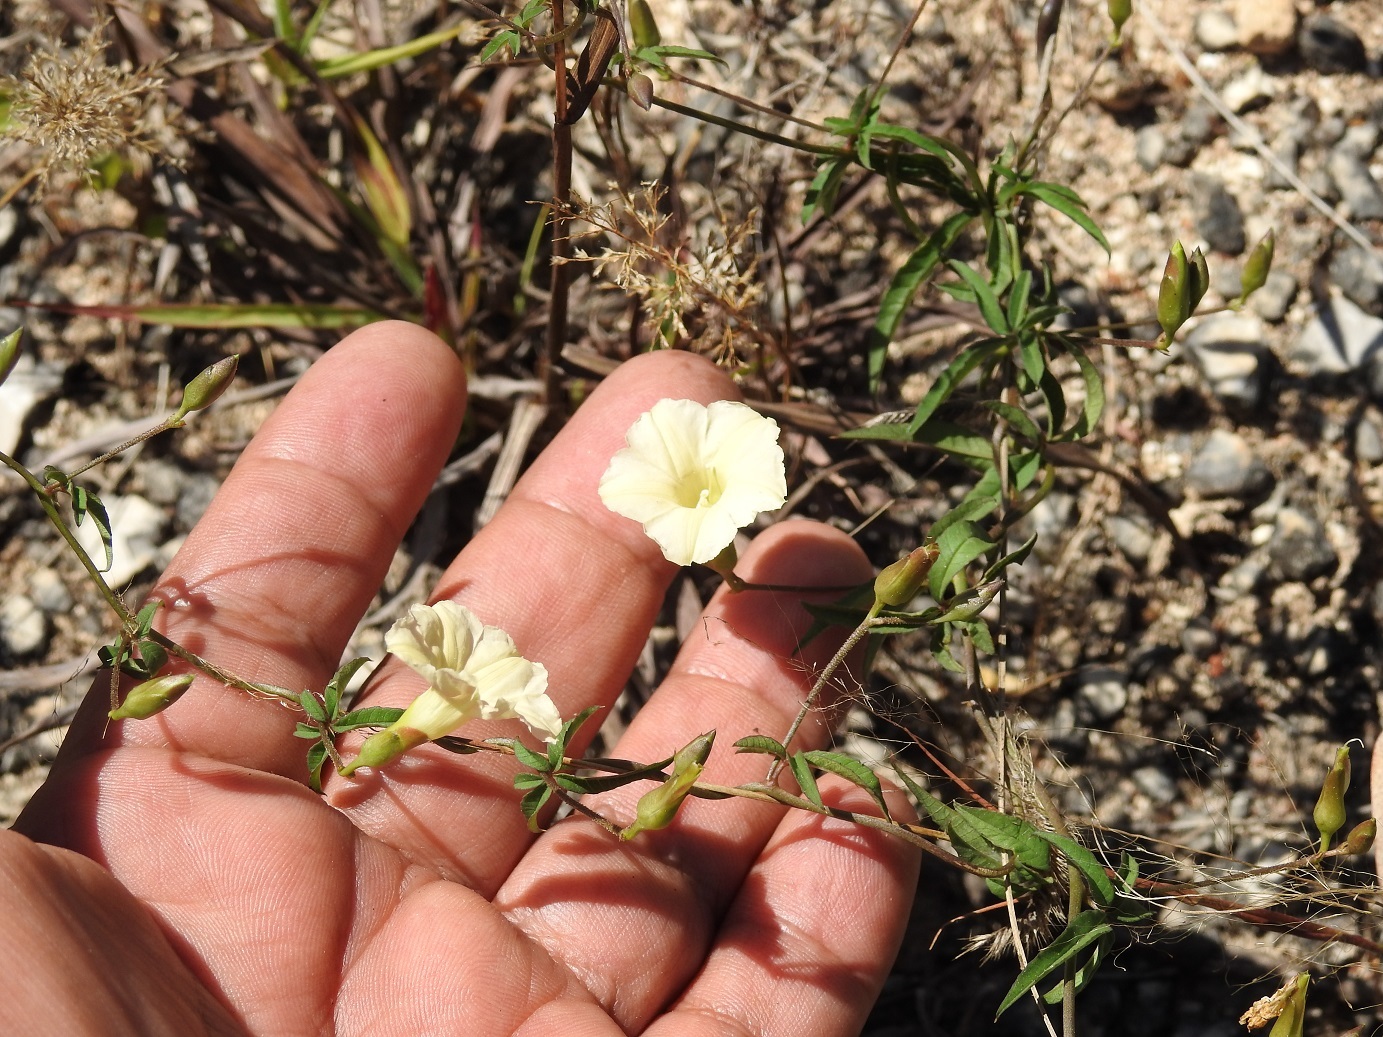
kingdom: Plantae
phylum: Tracheophyta
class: Magnoliopsida
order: Solanales
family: Convolvulaceae
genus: Distimake
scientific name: Distimake quinquefolius
